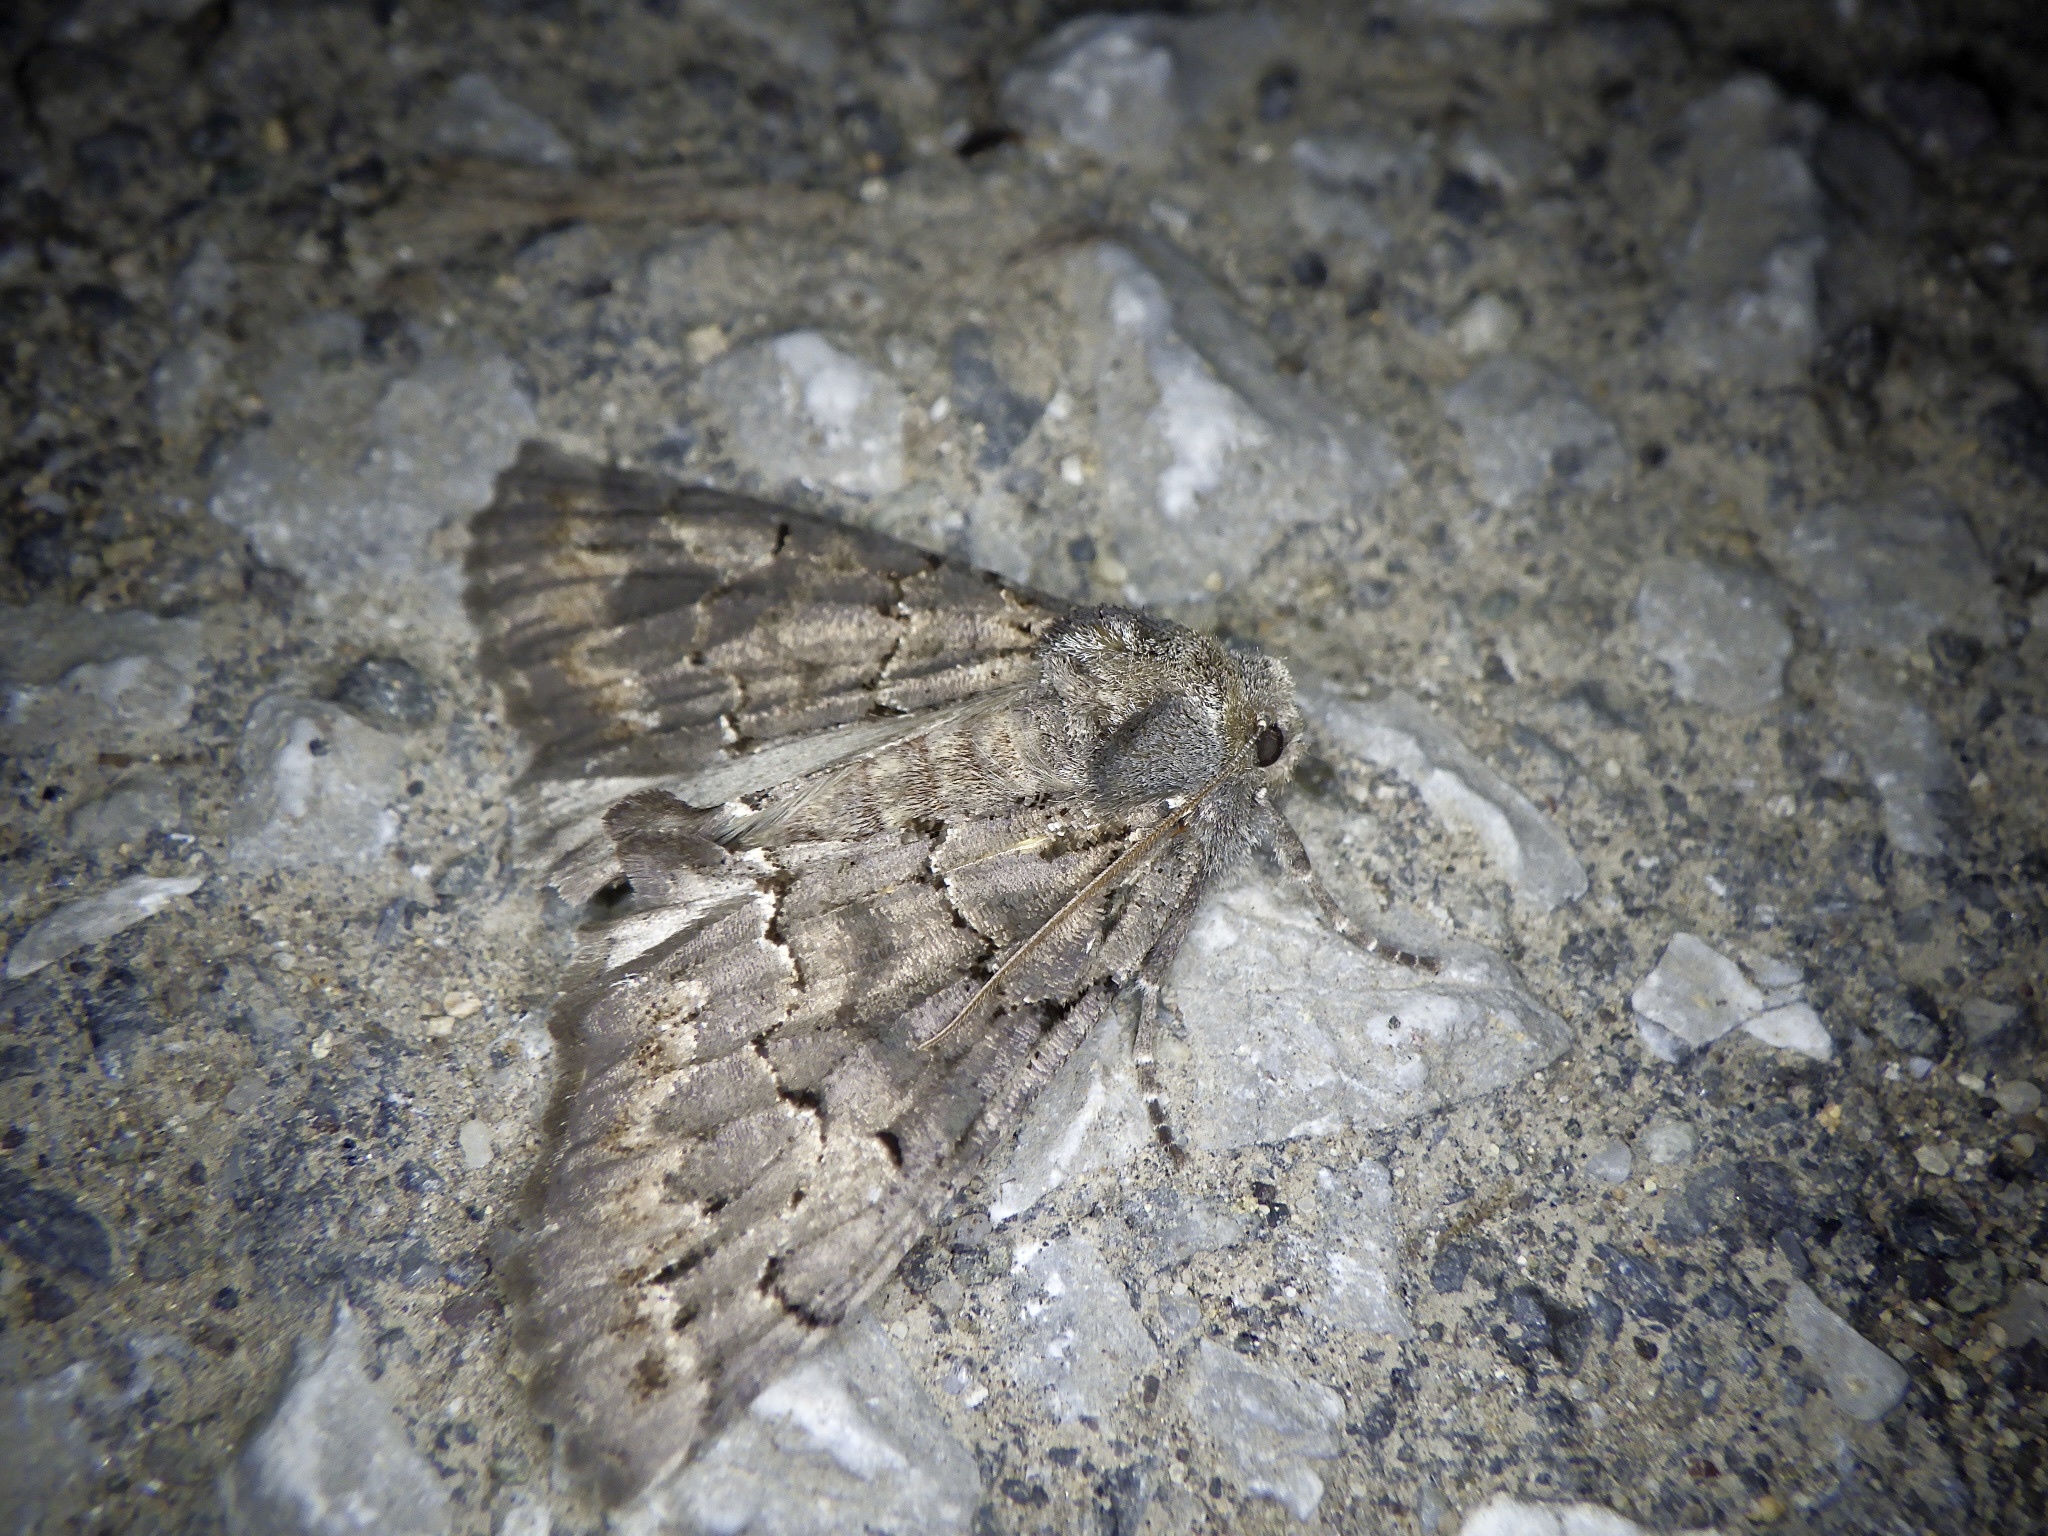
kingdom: Animalia
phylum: Arthropoda
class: Insecta
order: Lepidoptera
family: Geometridae
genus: Pachyligia
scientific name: Pachyligia dolosa
